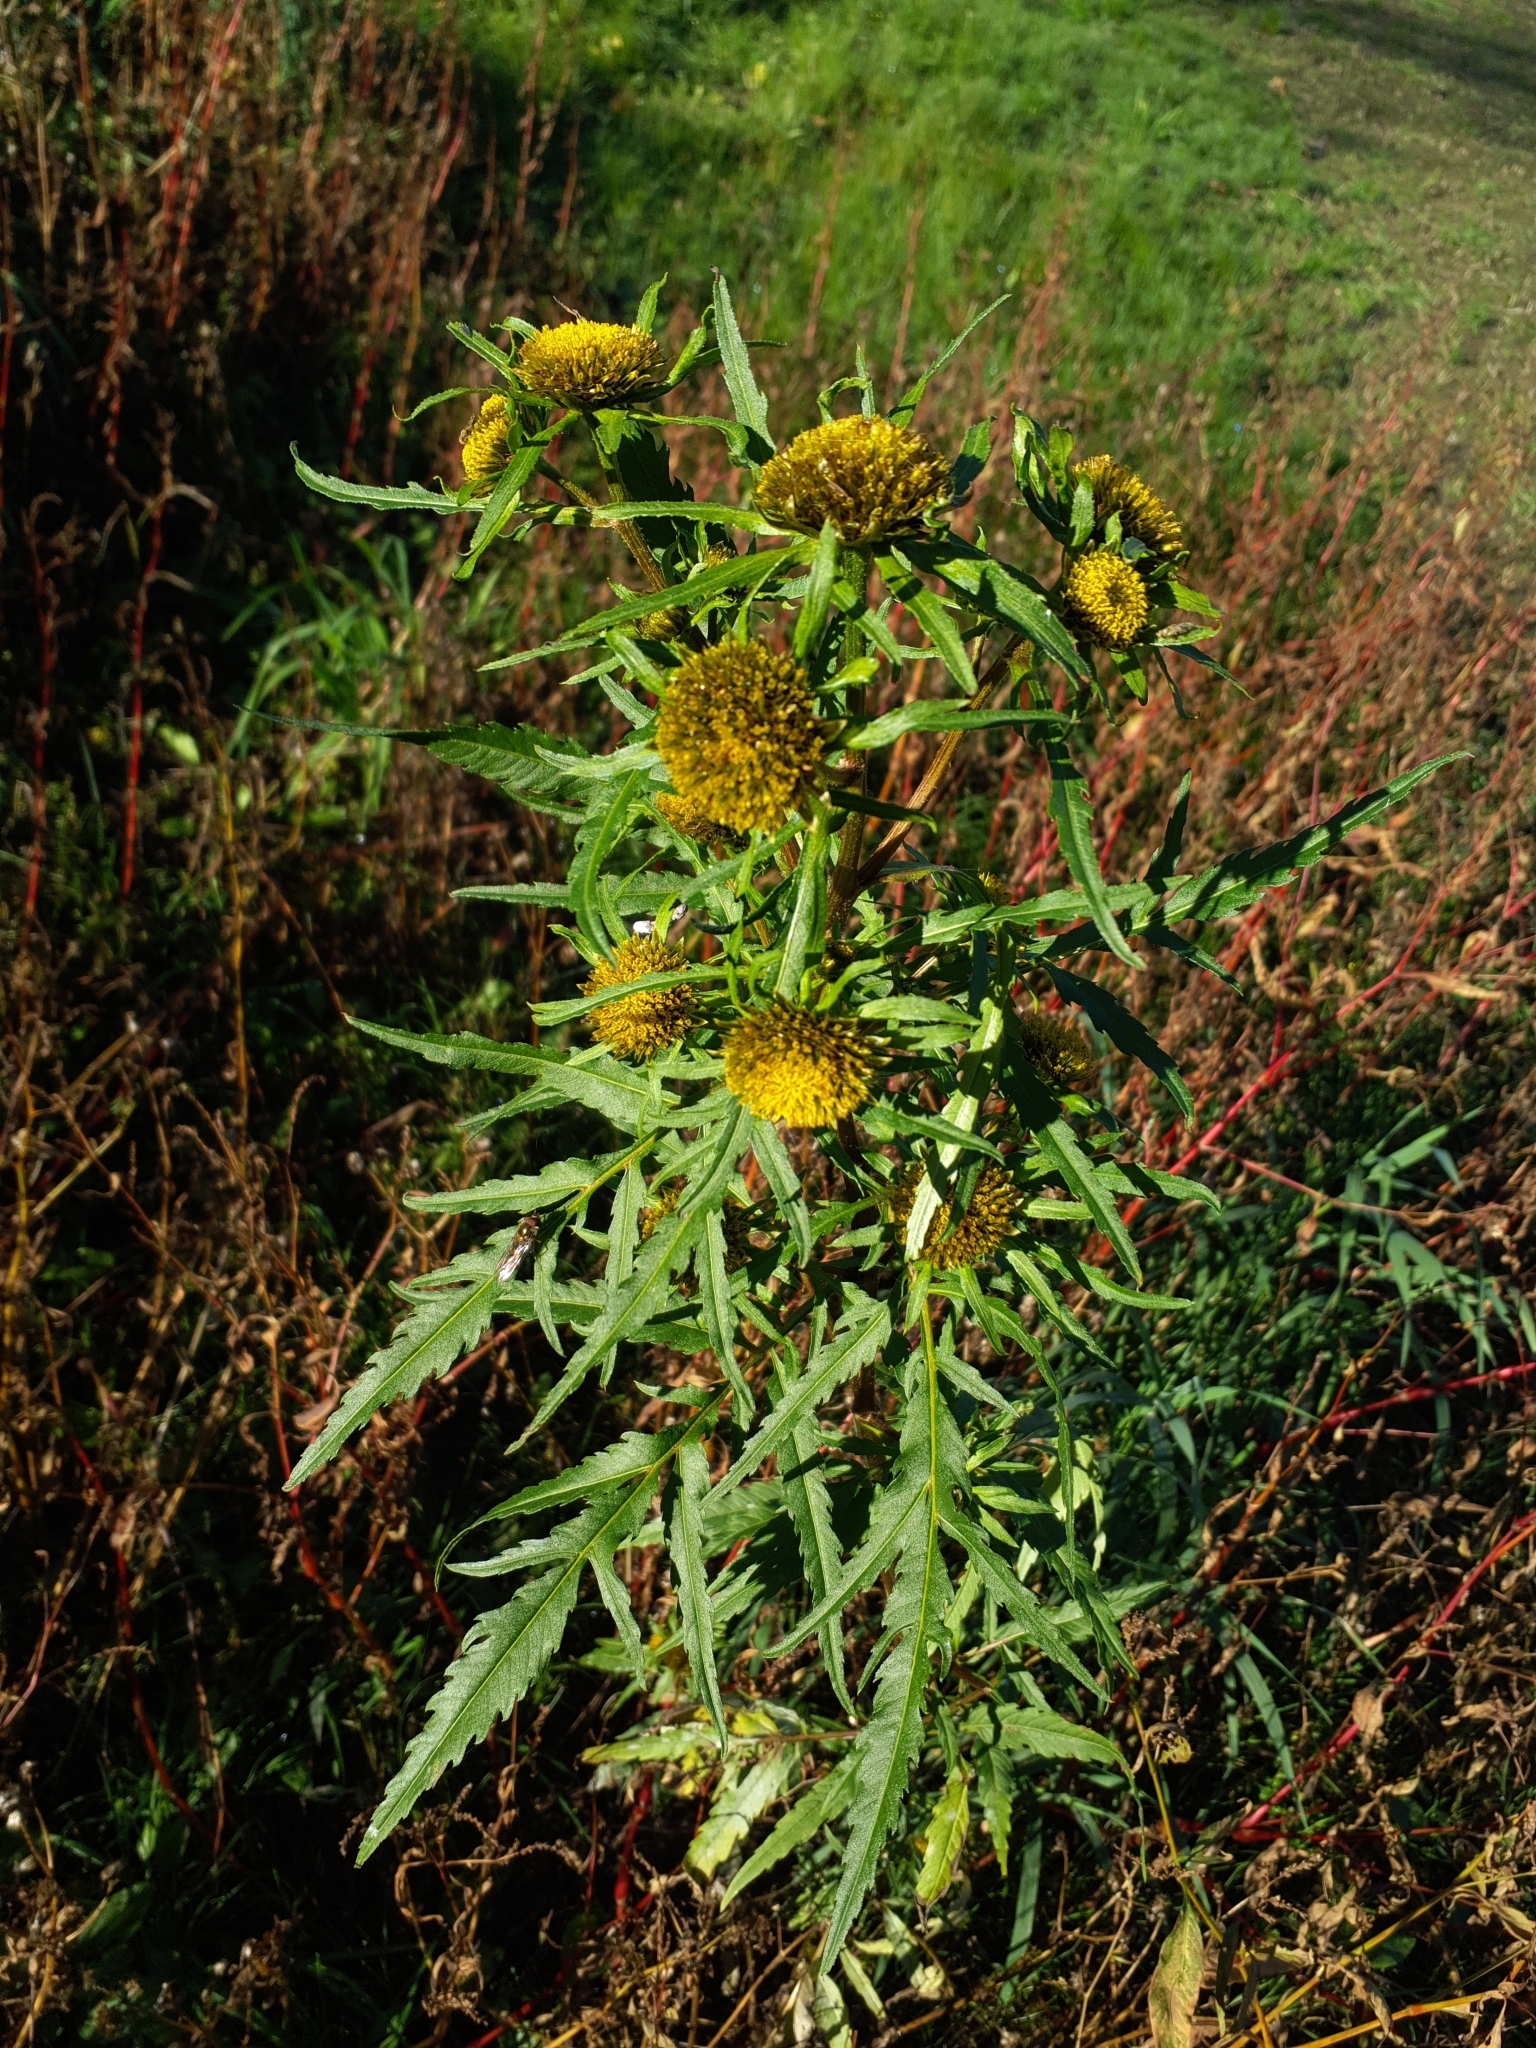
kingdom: Plantae
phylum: Tracheophyta
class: Magnoliopsida
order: Asterales
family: Asteraceae
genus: Bidens
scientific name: Bidens radiata
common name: Radiating bur-marigold
